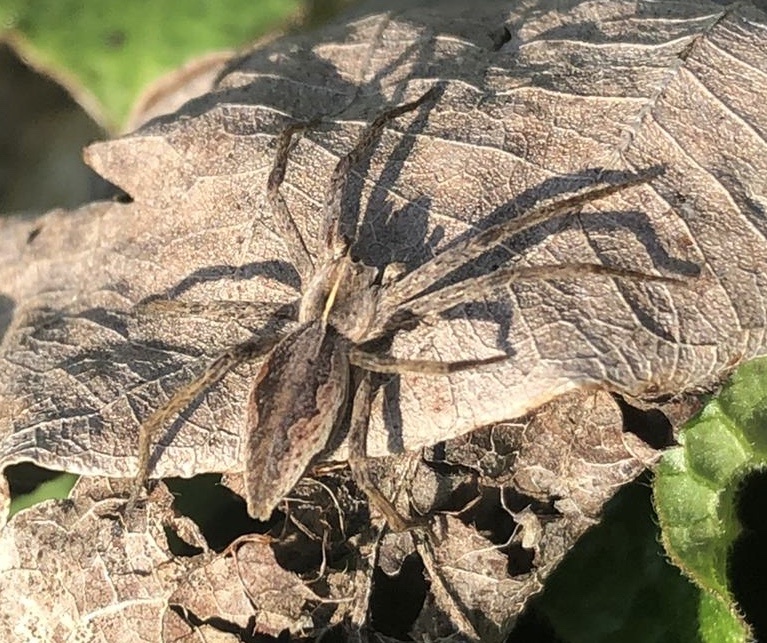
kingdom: Animalia
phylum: Arthropoda
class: Arachnida
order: Araneae
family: Pisauridae
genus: Pisaura
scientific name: Pisaura mirabilis
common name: Tent spider
